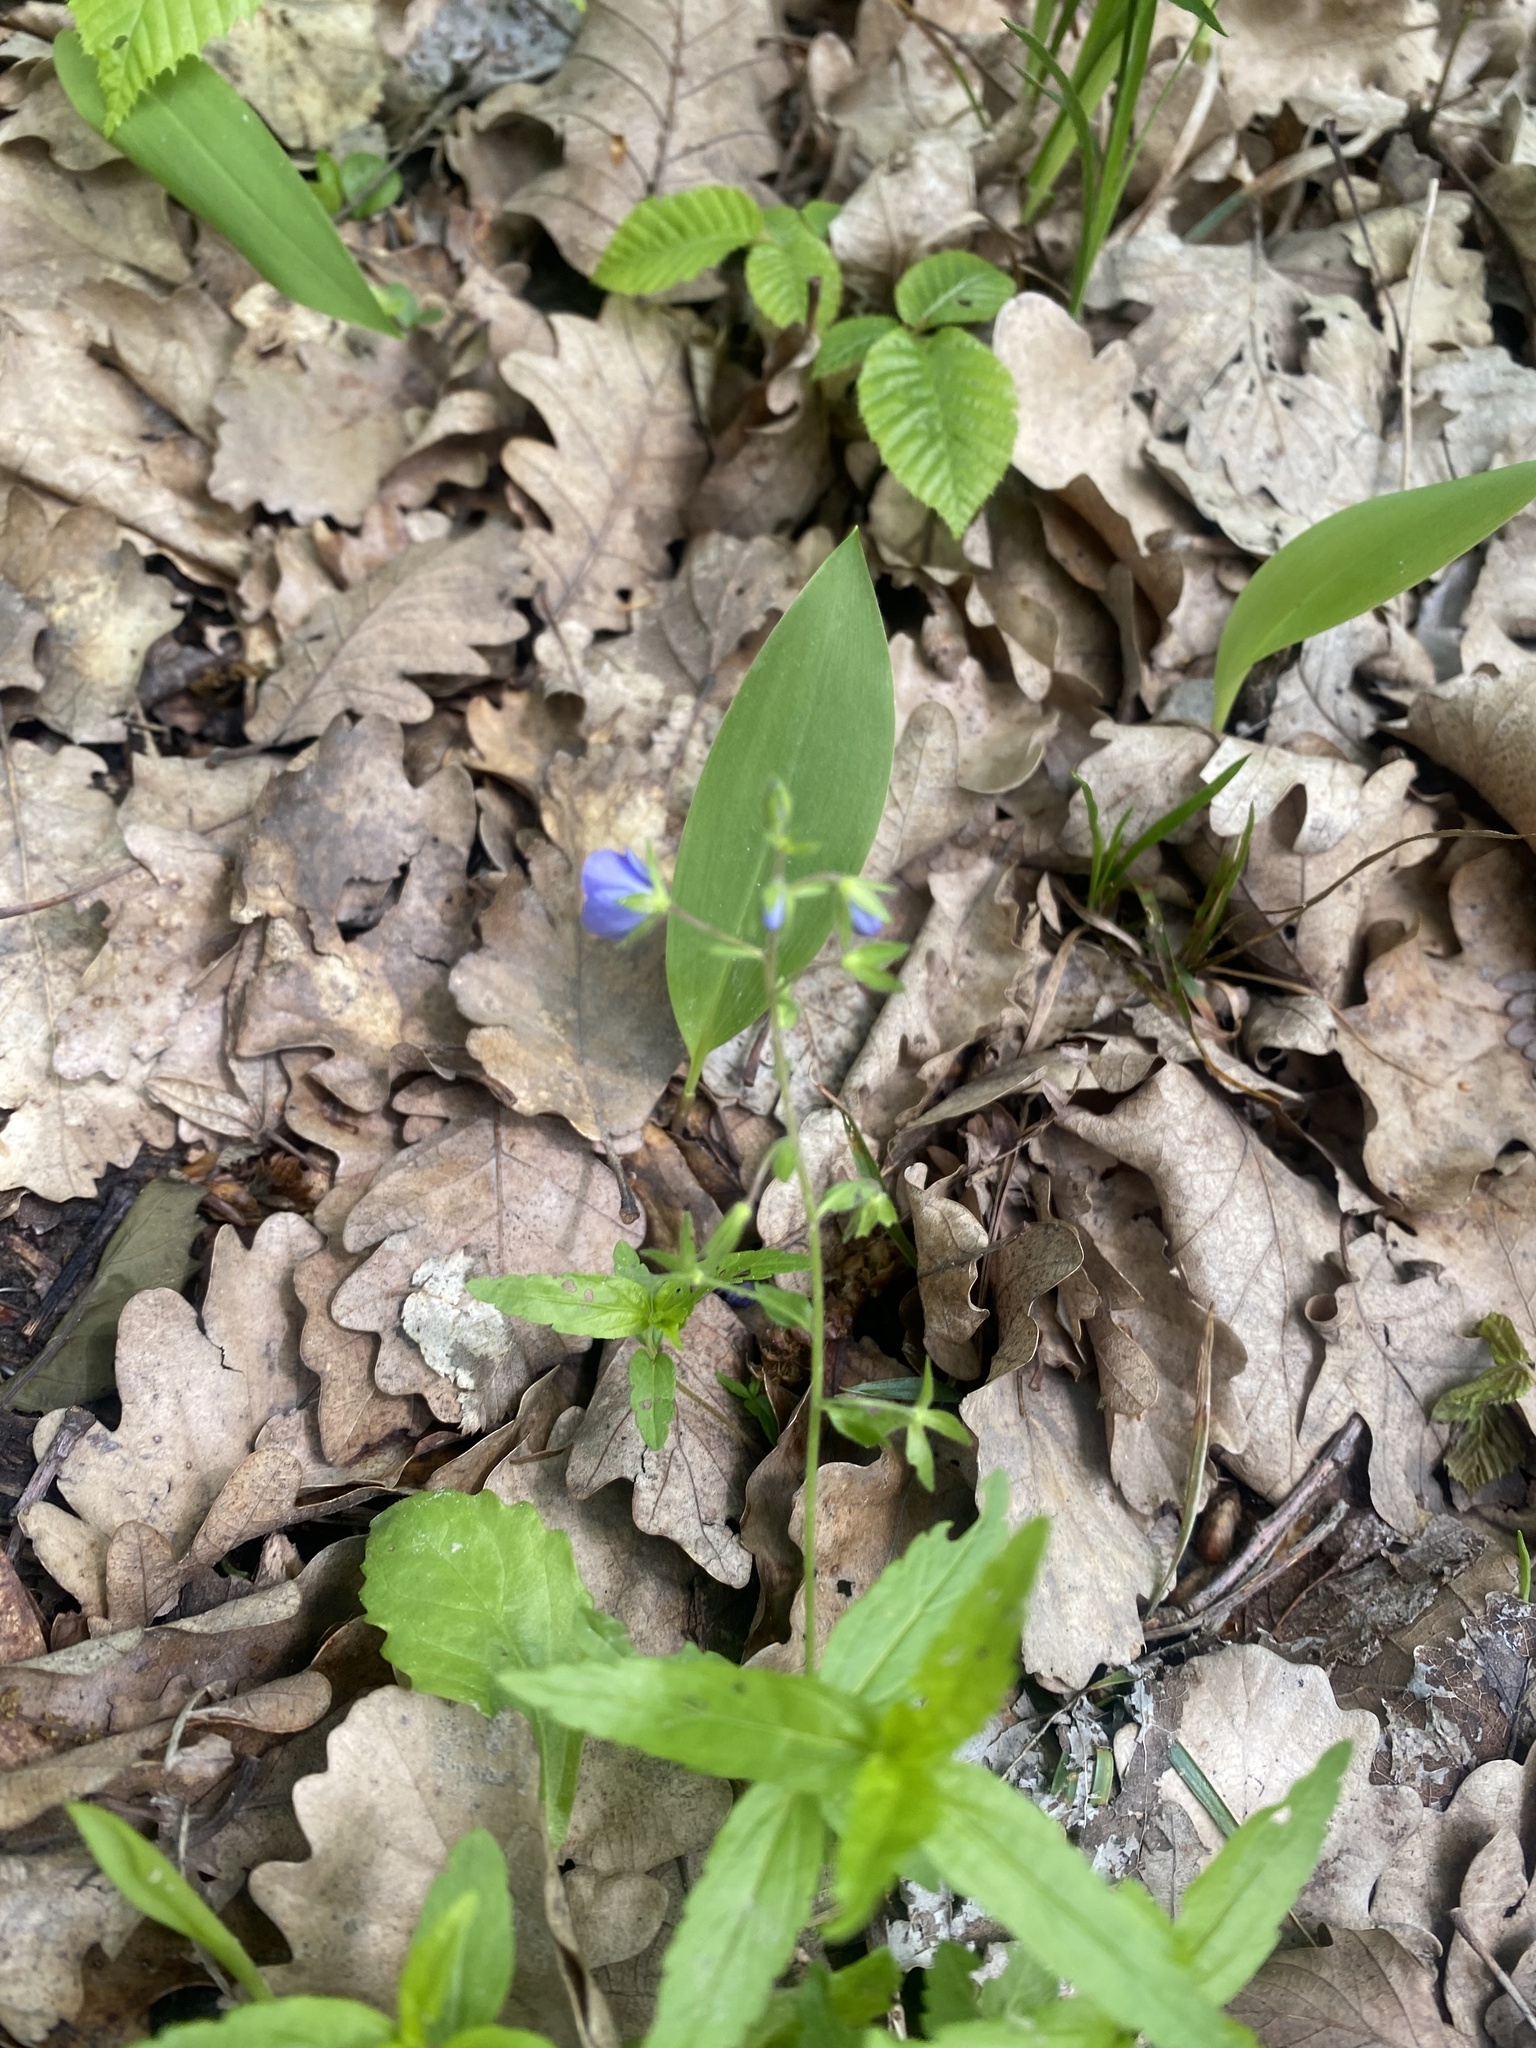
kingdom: Plantae
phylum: Tracheophyta
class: Magnoliopsida
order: Lamiales
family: Plantaginaceae
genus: Veronica
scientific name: Veronica
